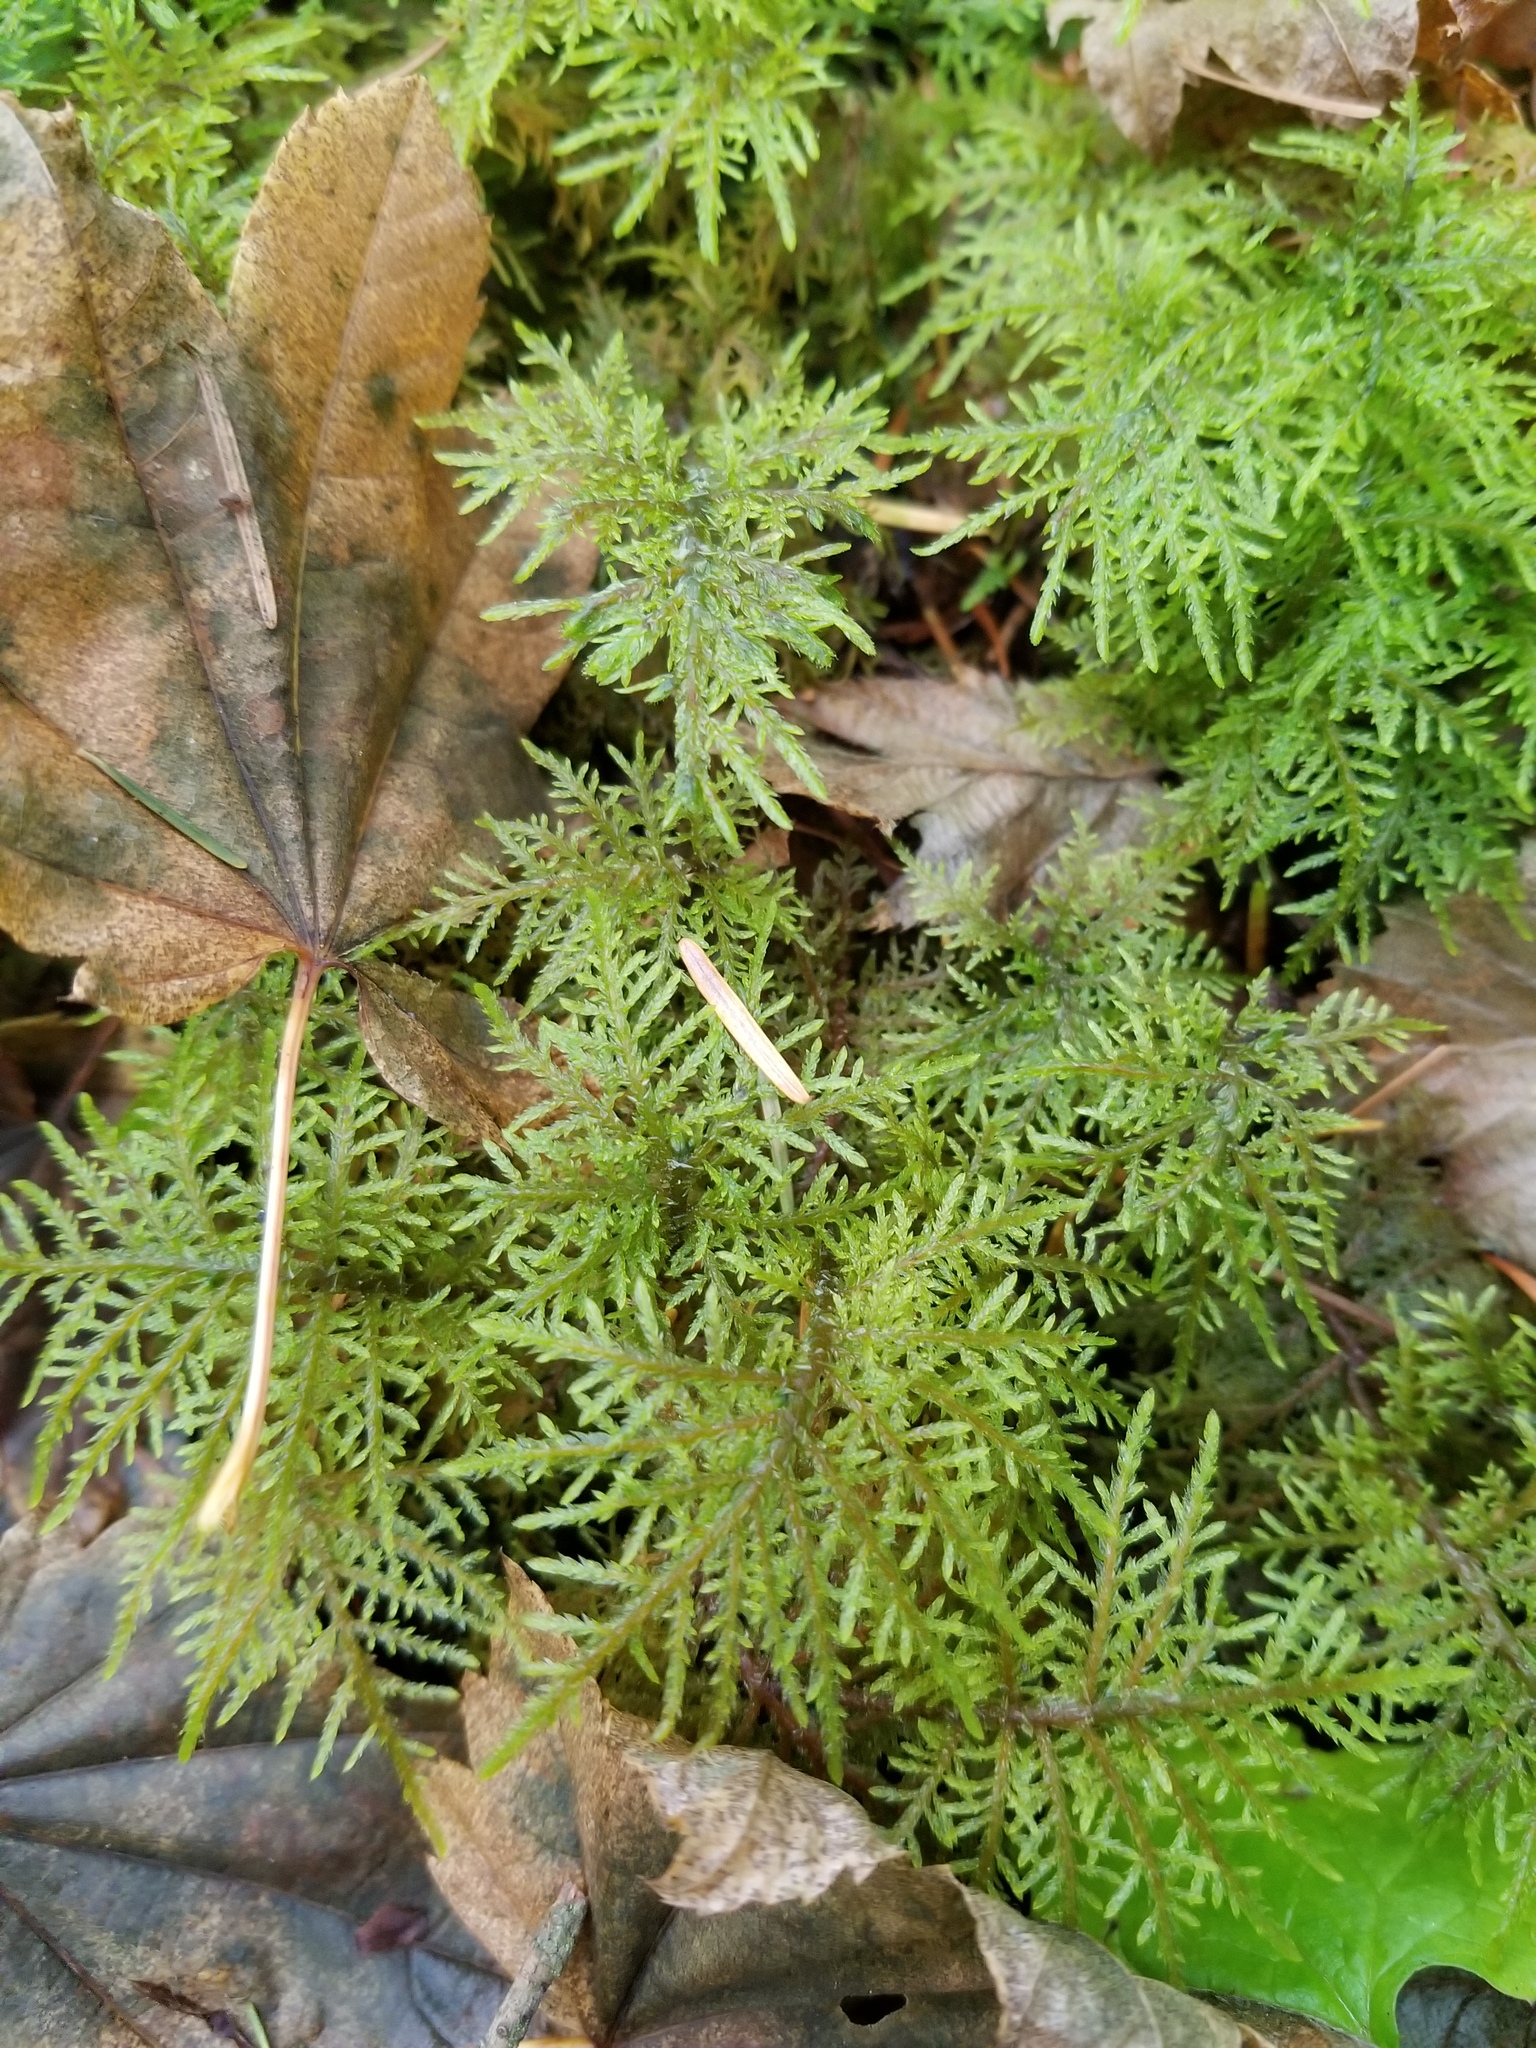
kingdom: Plantae
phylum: Bryophyta
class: Bryopsida
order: Hypnales
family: Hylocomiaceae
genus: Hylocomium
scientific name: Hylocomium splendens
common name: Stairstep moss
